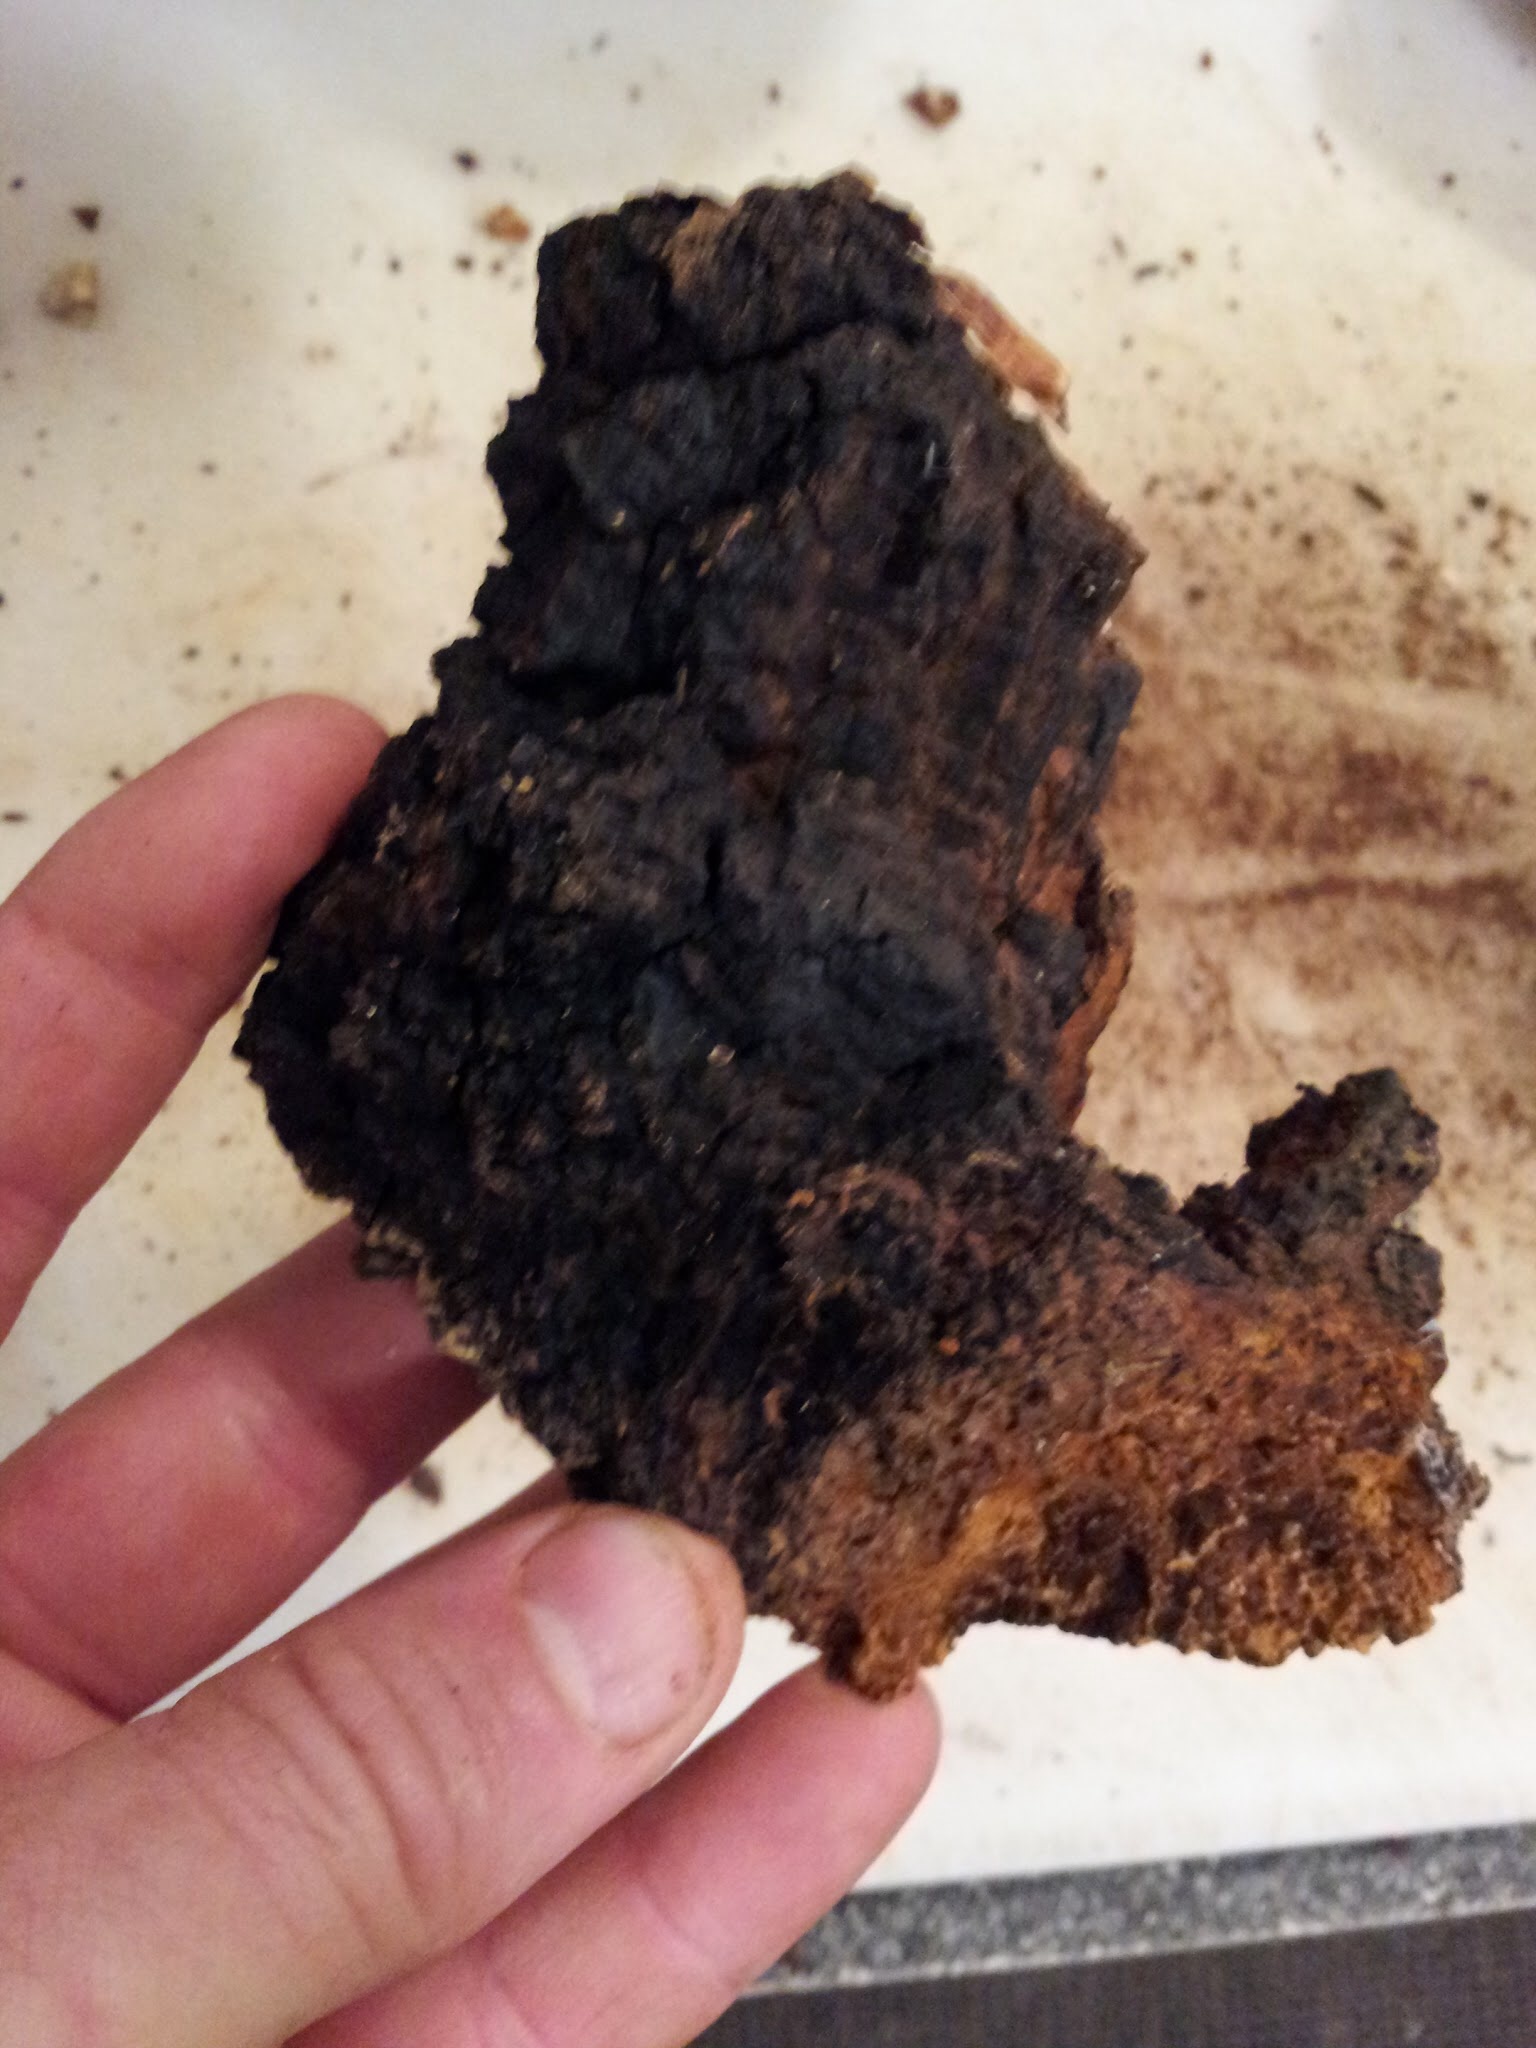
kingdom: Fungi
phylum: Basidiomycota
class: Agaricomycetes
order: Hymenochaetales
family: Hymenochaetaceae
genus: Inonotus
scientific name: Inonotus obliquus
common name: Chaga
